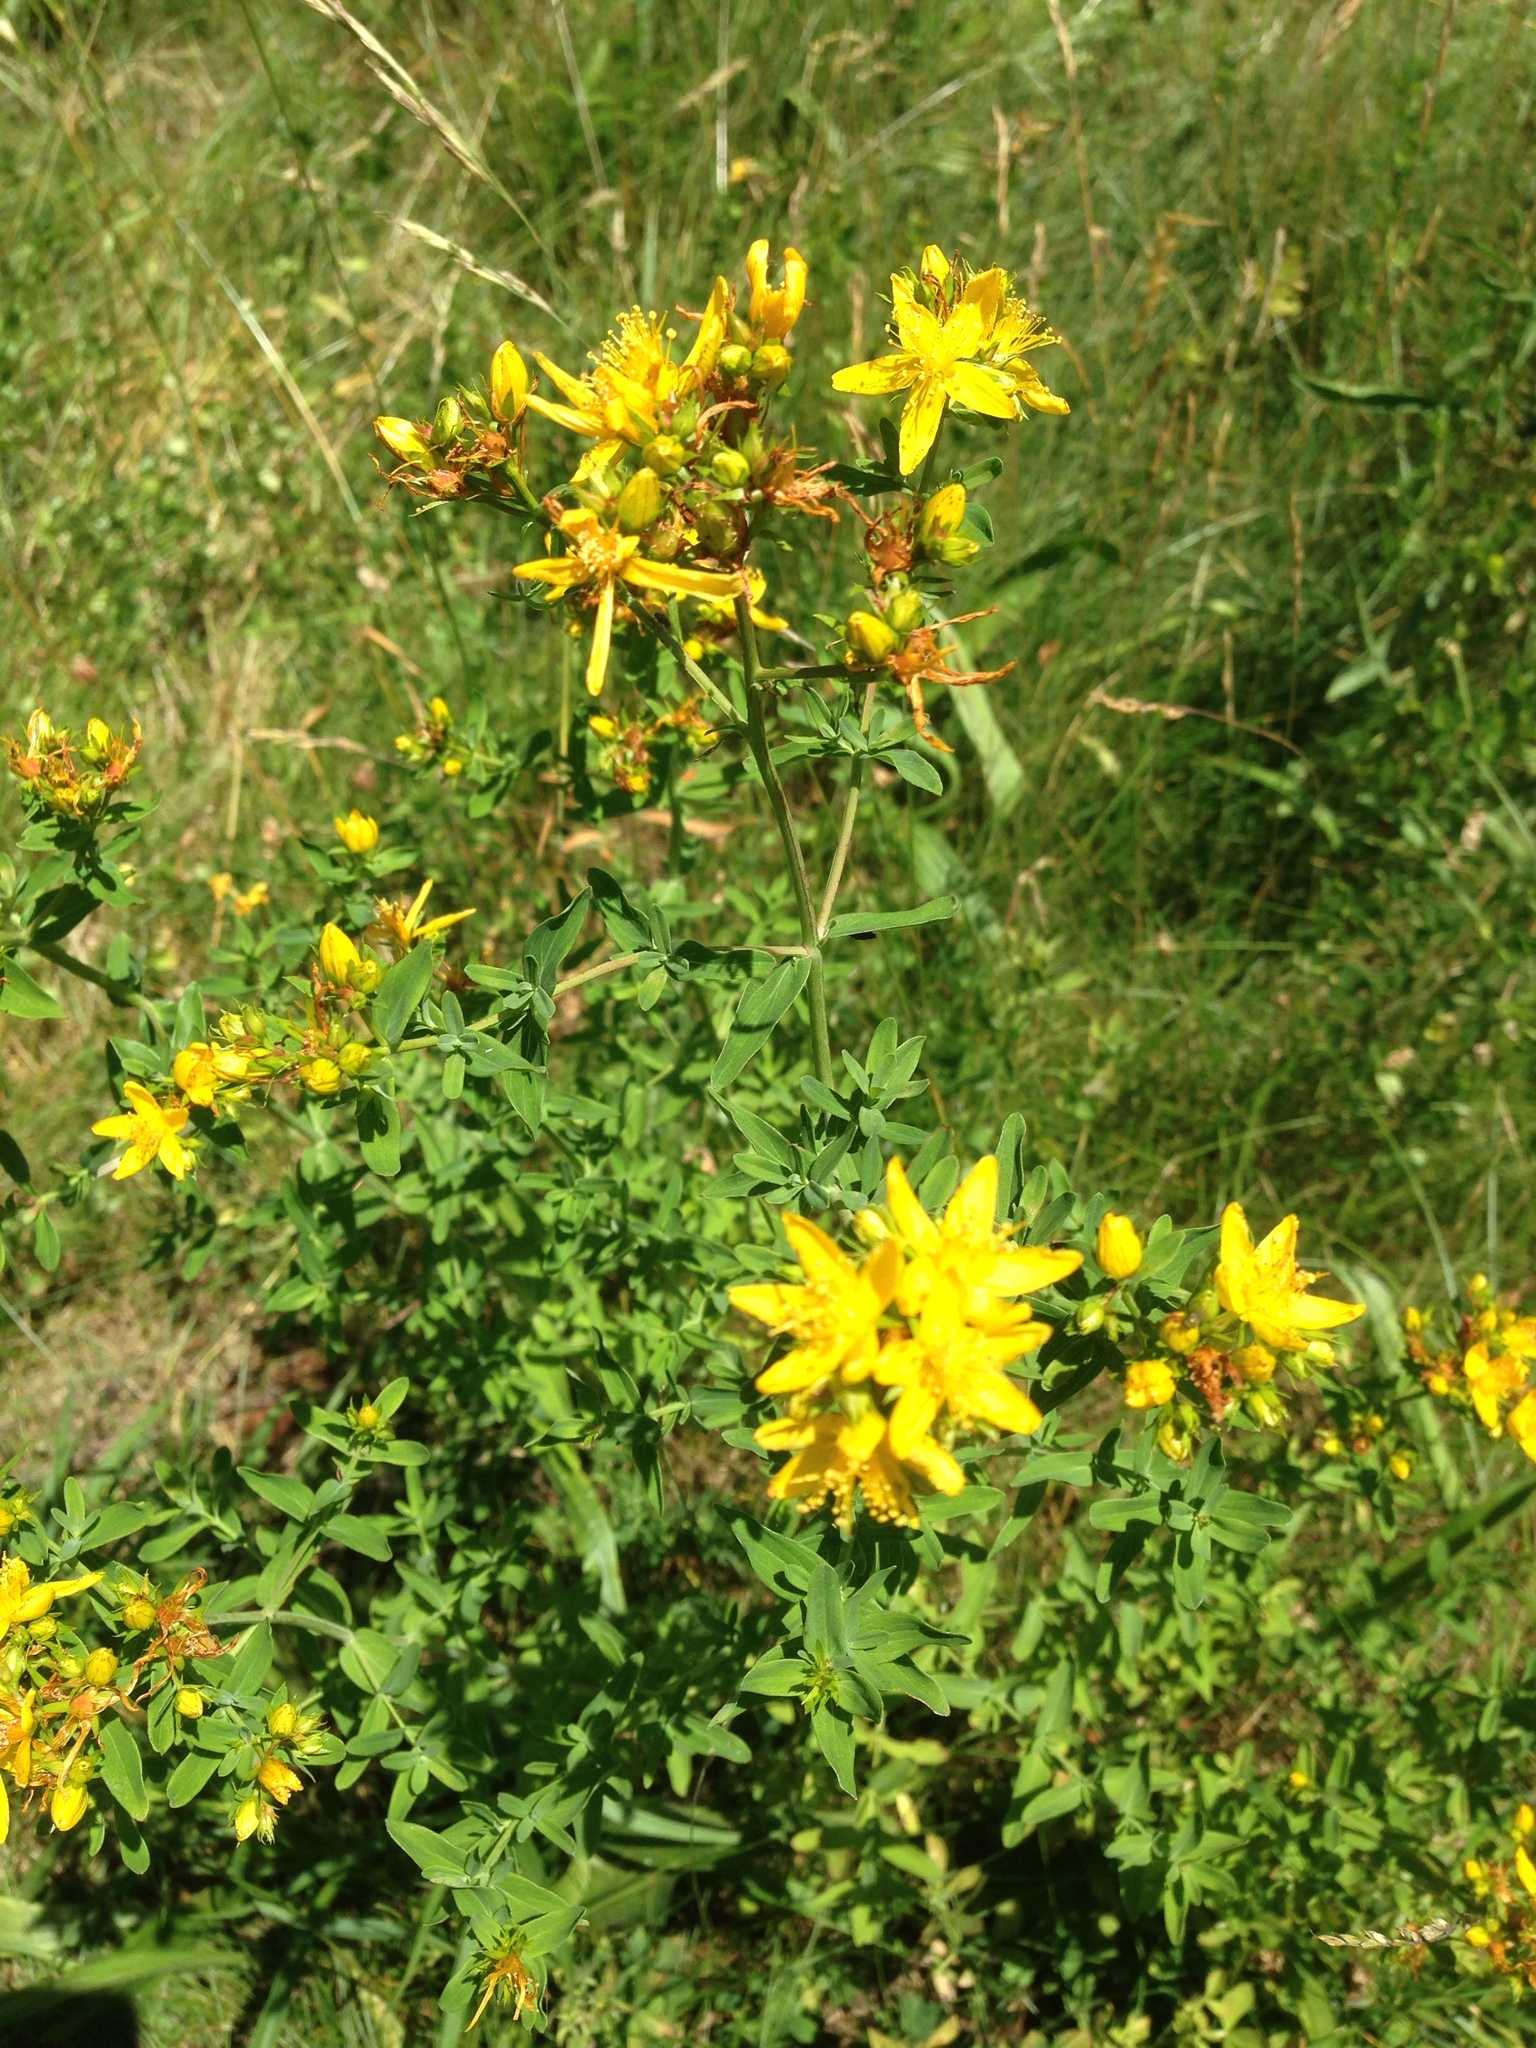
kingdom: Plantae
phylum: Tracheophyta
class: Magnoliopsida
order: Malpighiales
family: Hypericaceae
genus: Hypericum
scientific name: Hypericum perforatum
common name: Common st. johnswort
